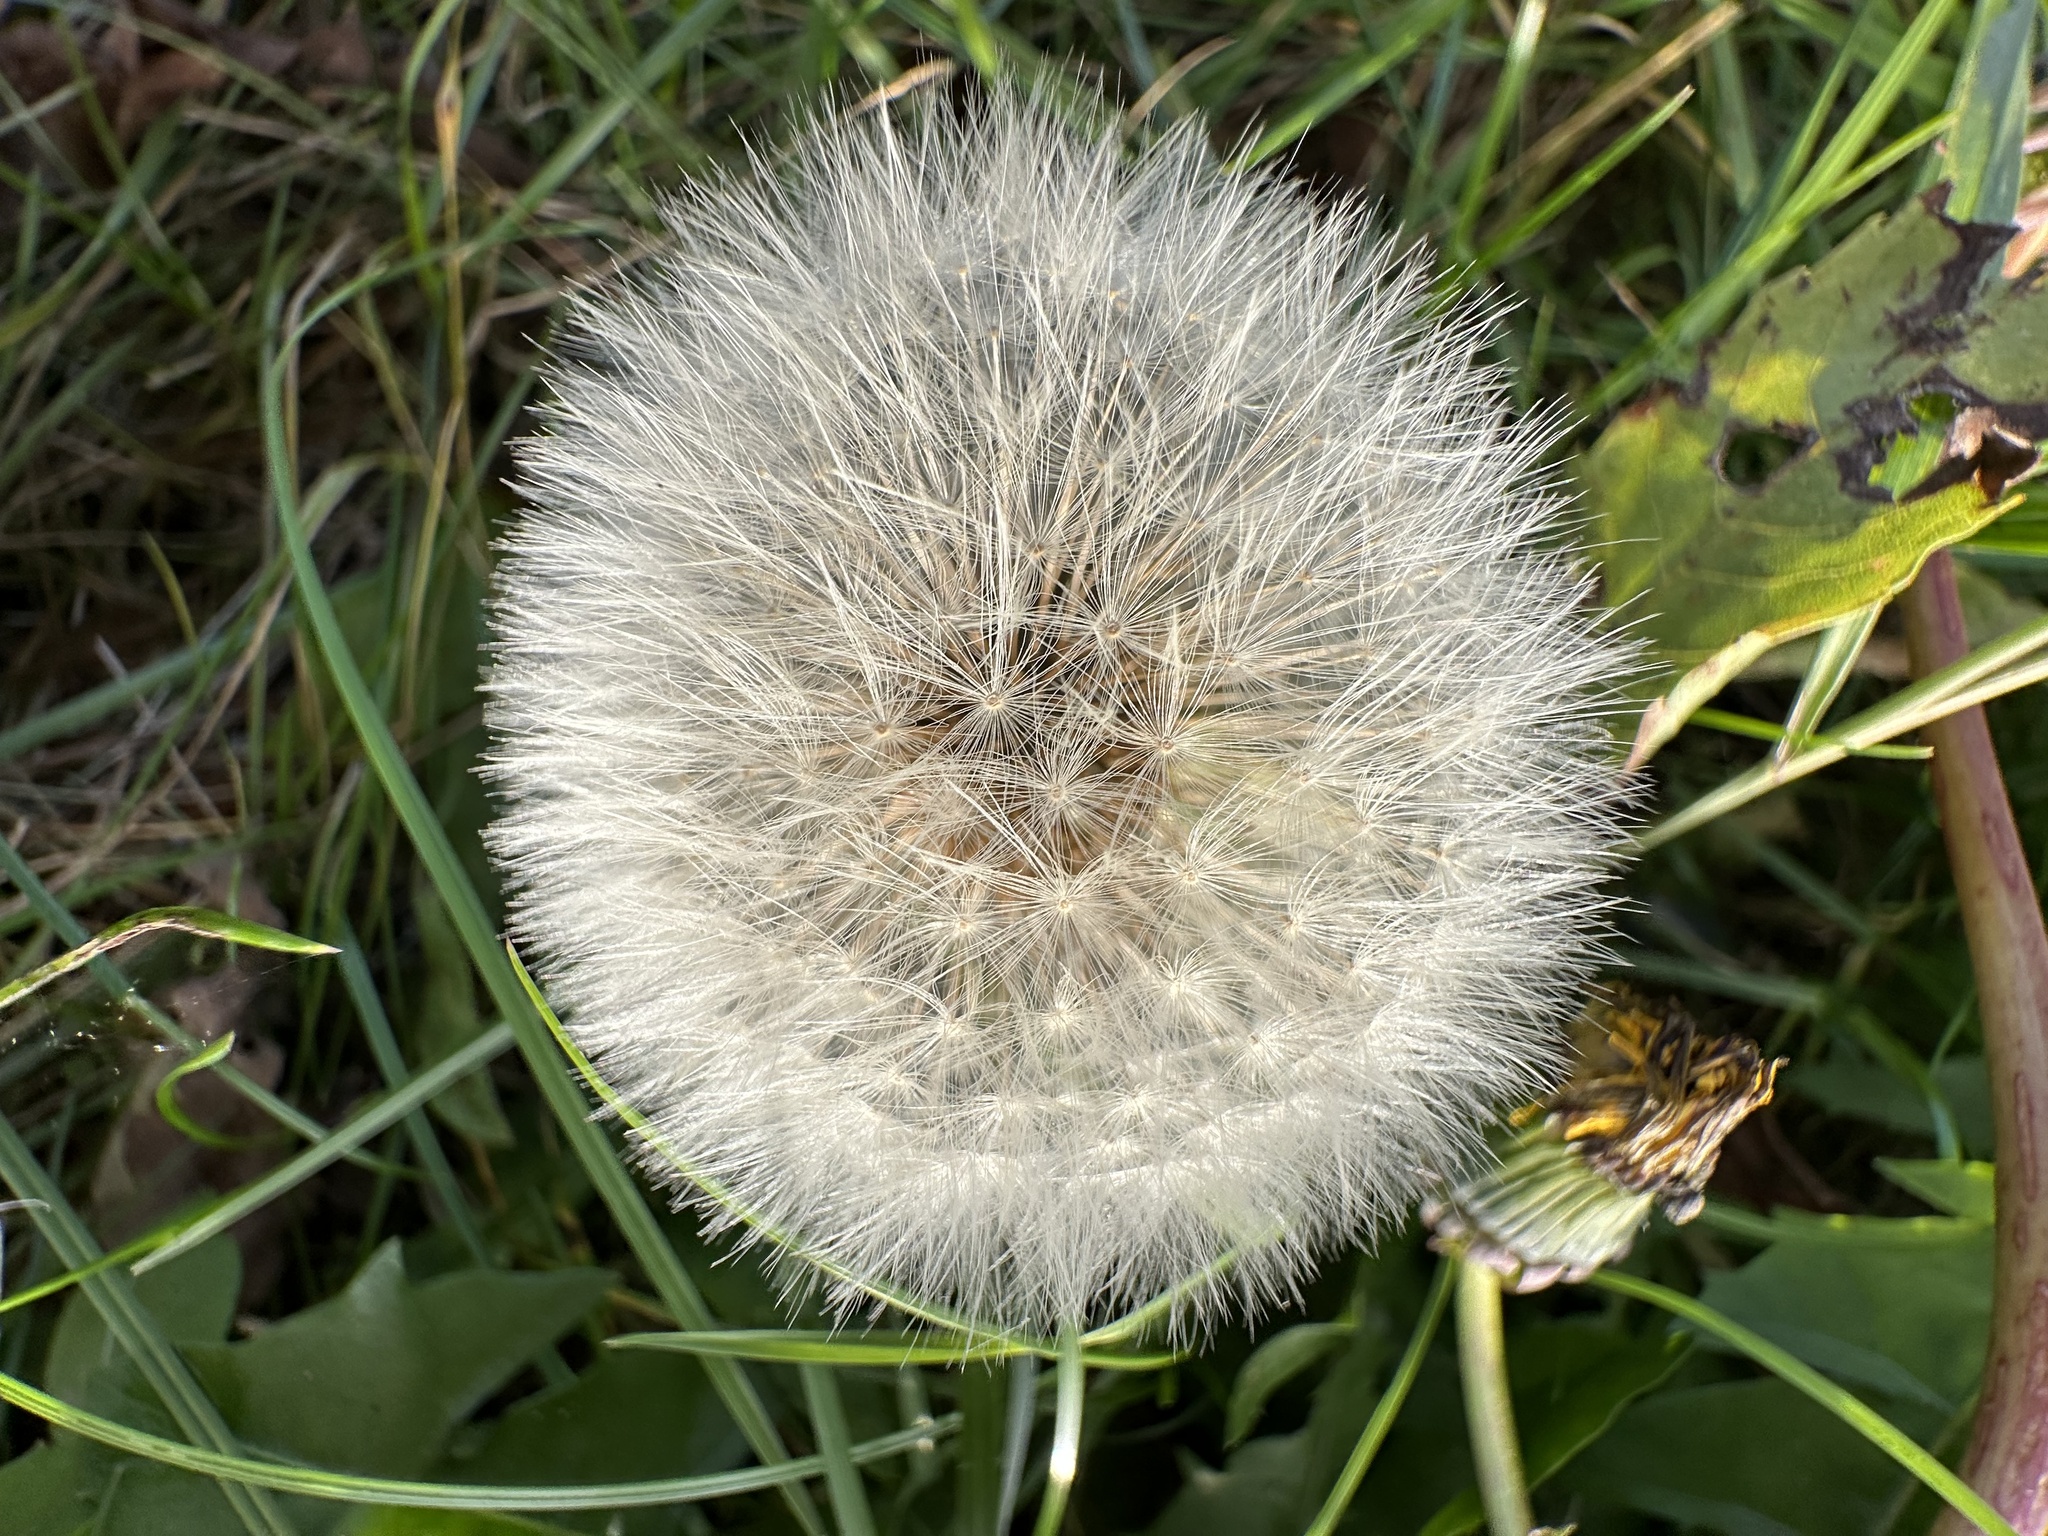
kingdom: Plantae
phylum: Tracheophyta
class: Magnoliopsida
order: Asterales
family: Asteraceae
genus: Taraxacum
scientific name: Taraxacum officinale
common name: Common dandelion
